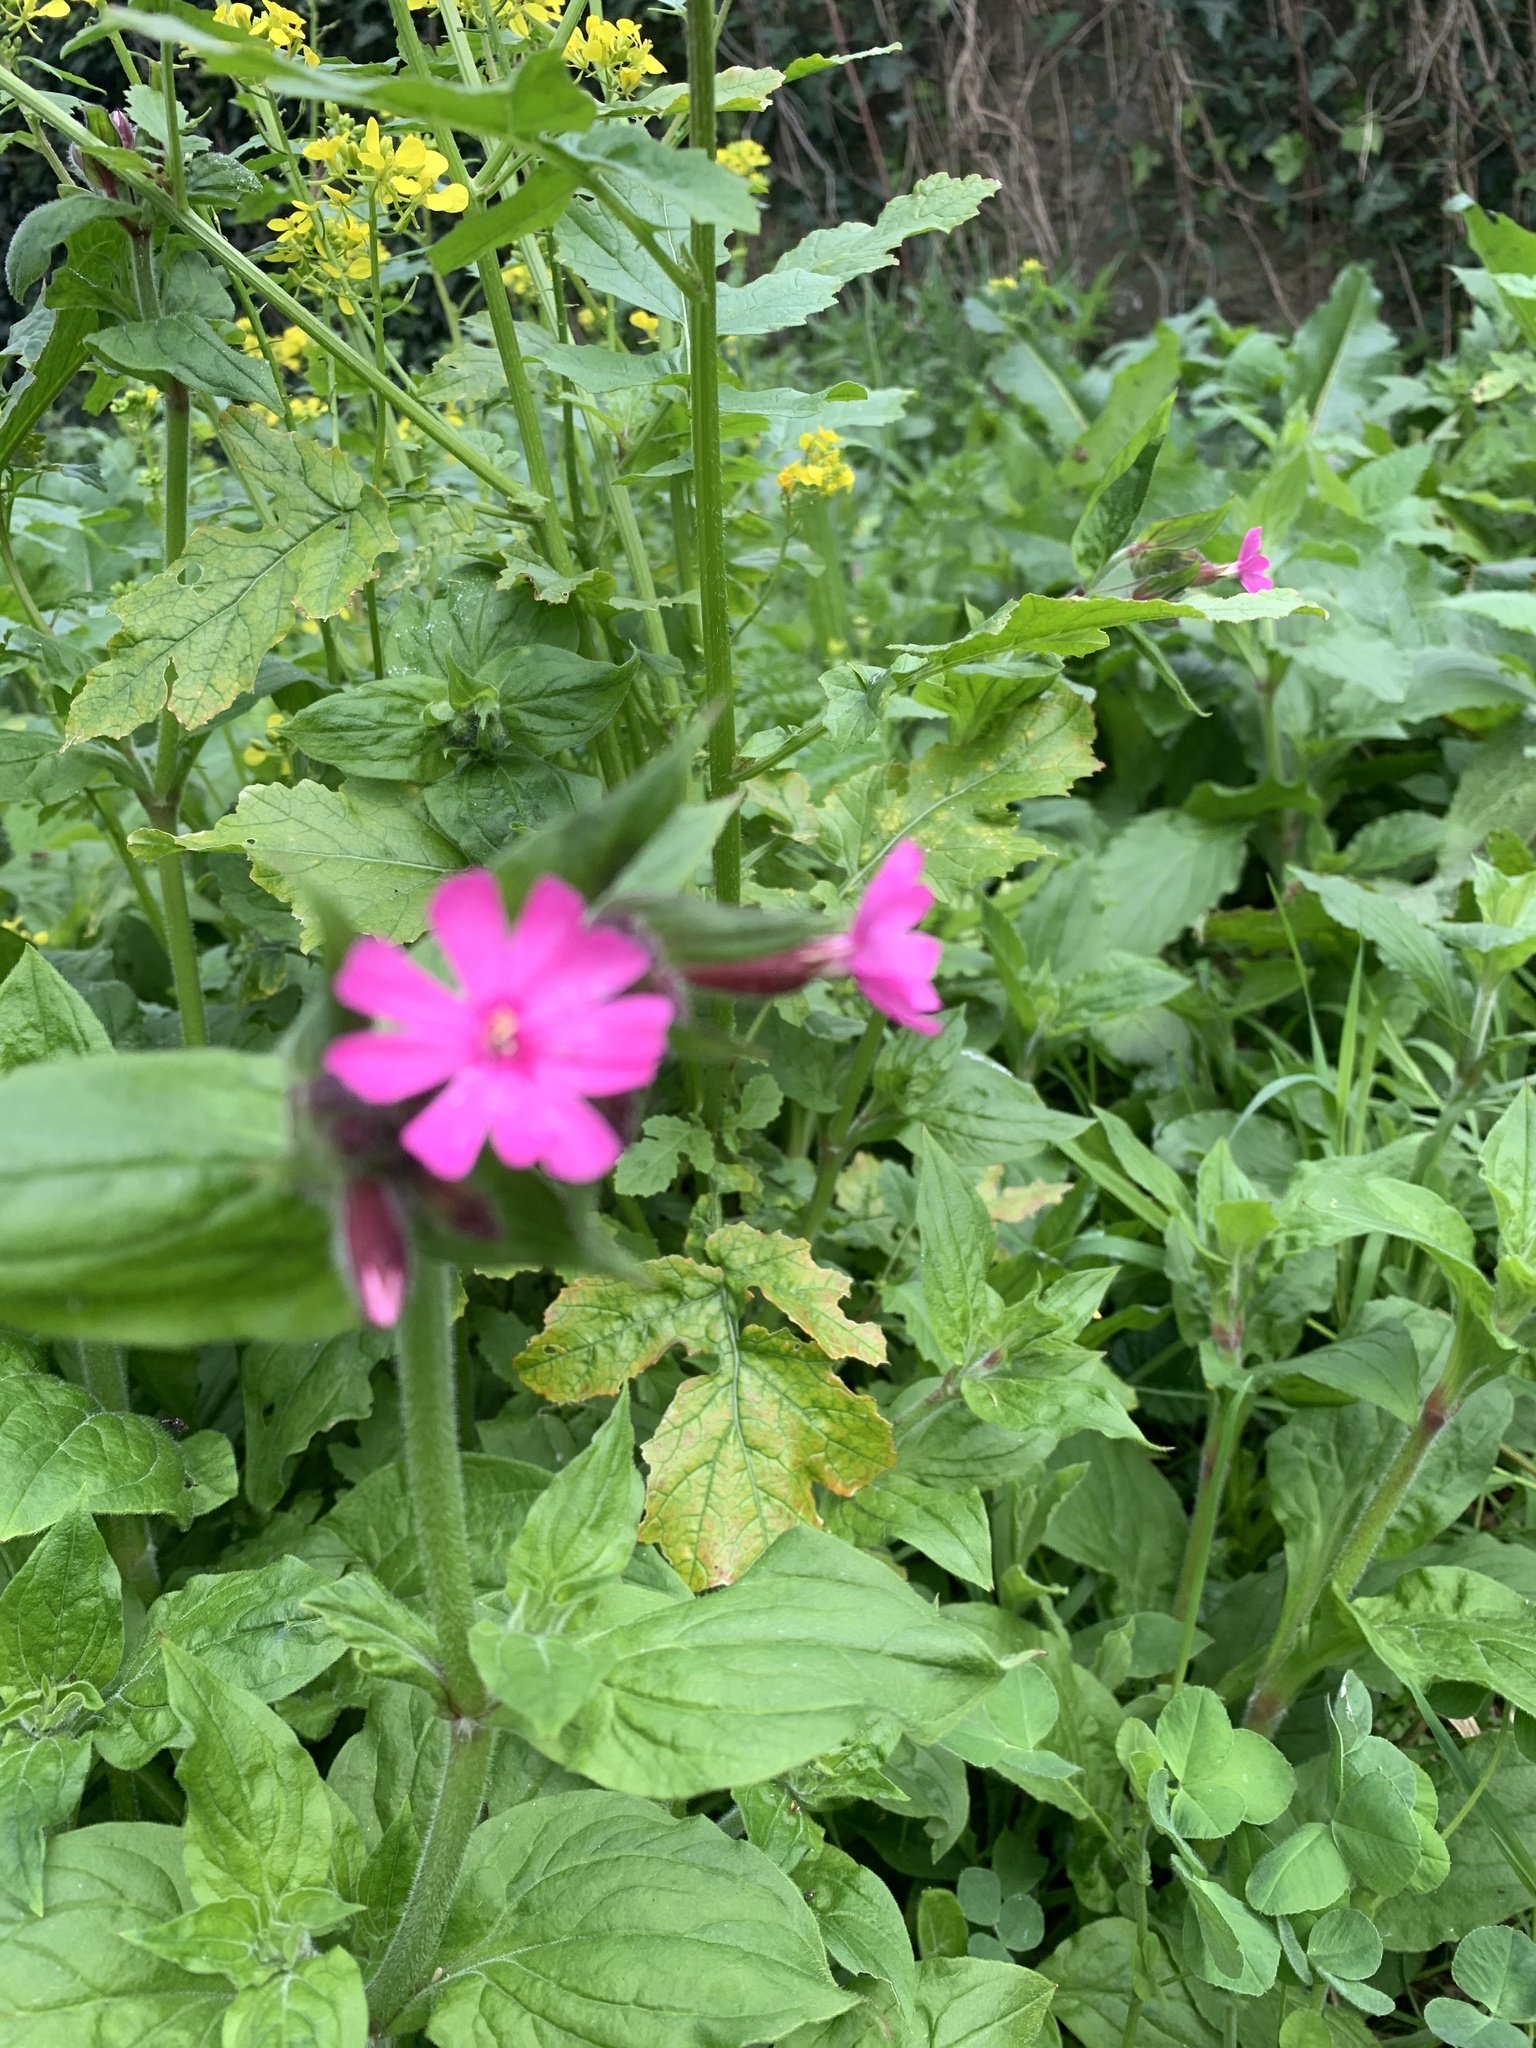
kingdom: Plantae
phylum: Tracheophyta
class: Magnoliopsida
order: Caryophyllales
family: Caryophyllaceae
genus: Silene
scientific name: Silene dioica
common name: Red campion
